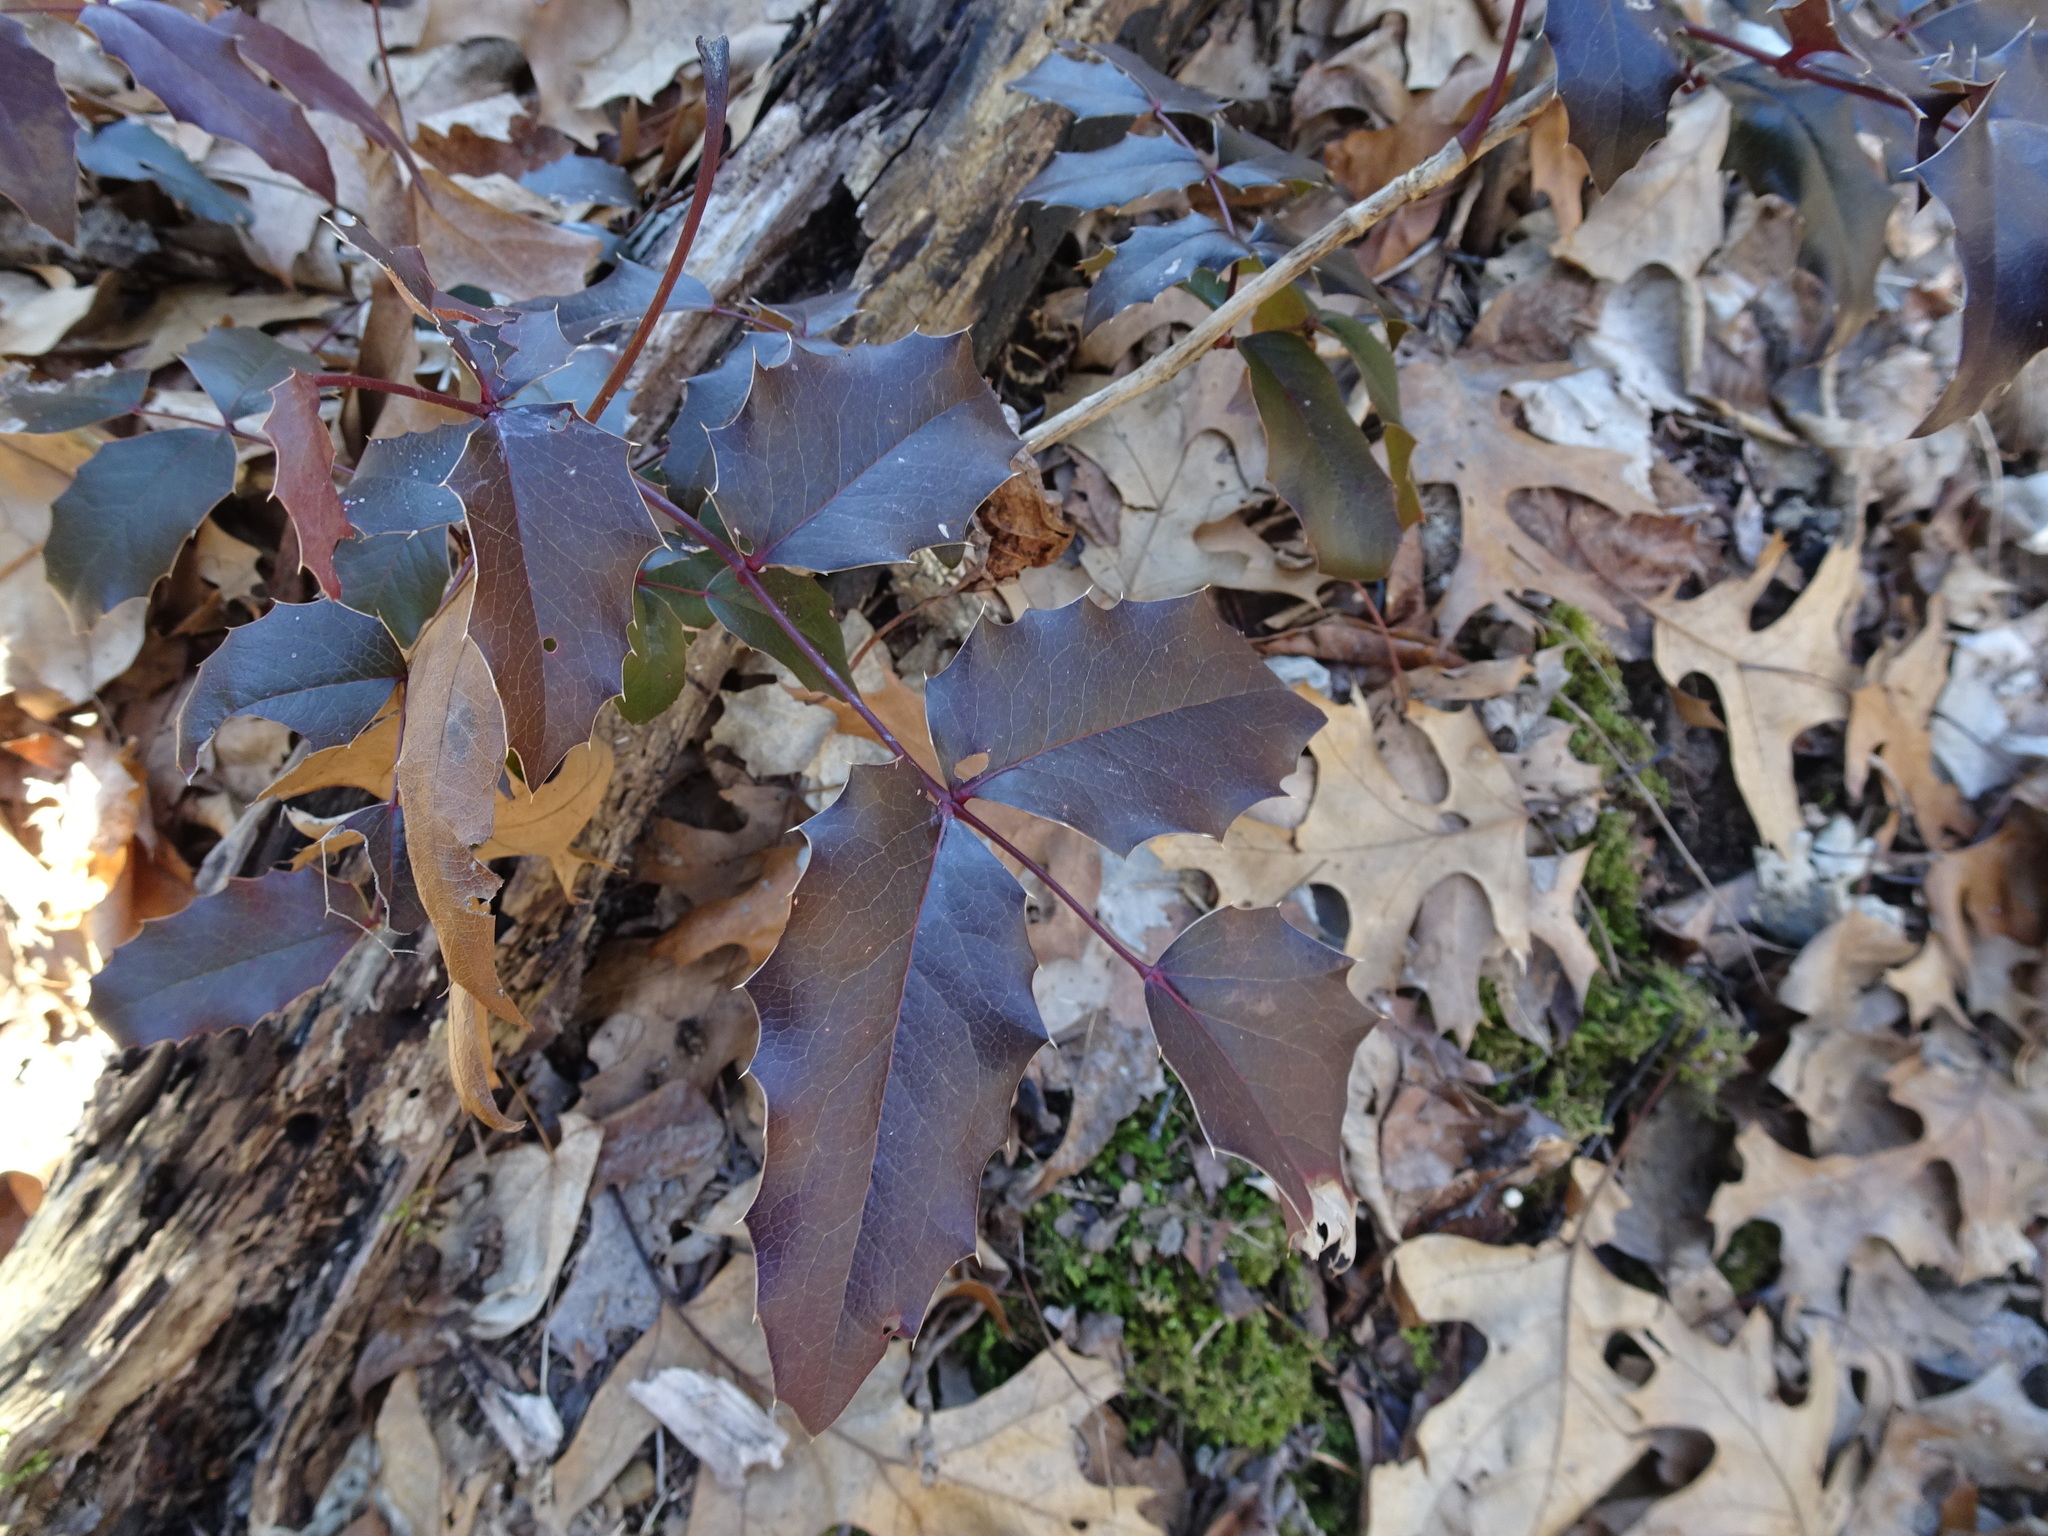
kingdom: Plantae
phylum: Tracheophyta
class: Magnoliopsida
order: Ranunculales
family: Berberidaceae
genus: Mahonia
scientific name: Mahonia aquifolium
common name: Oregon-grape
